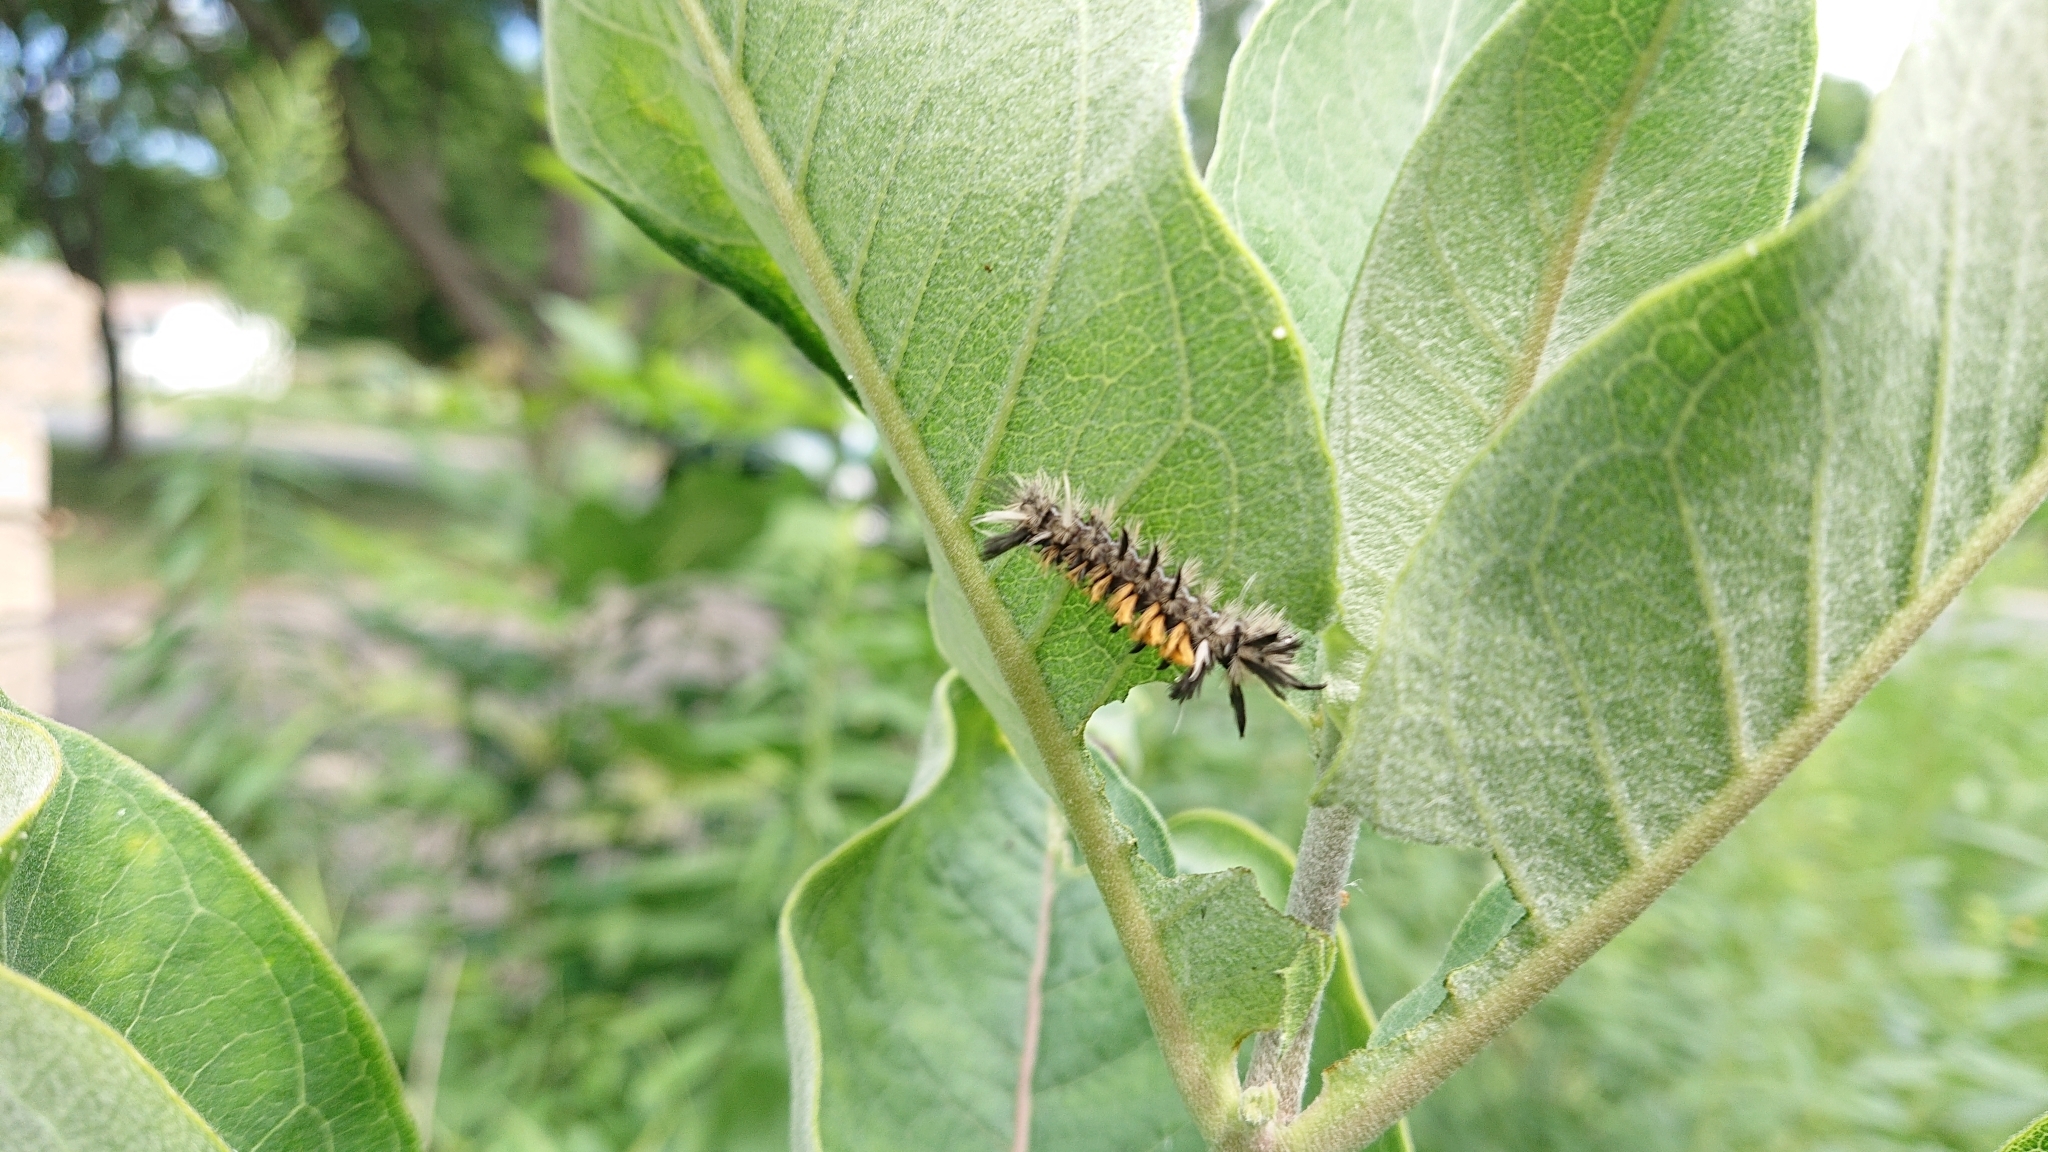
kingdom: Animalia
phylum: Arthropoda
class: Insecta
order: Lepidoptera
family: Erebidae
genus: Euchaetes
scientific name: Euchaetes egle
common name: Milkweed tussock moth
